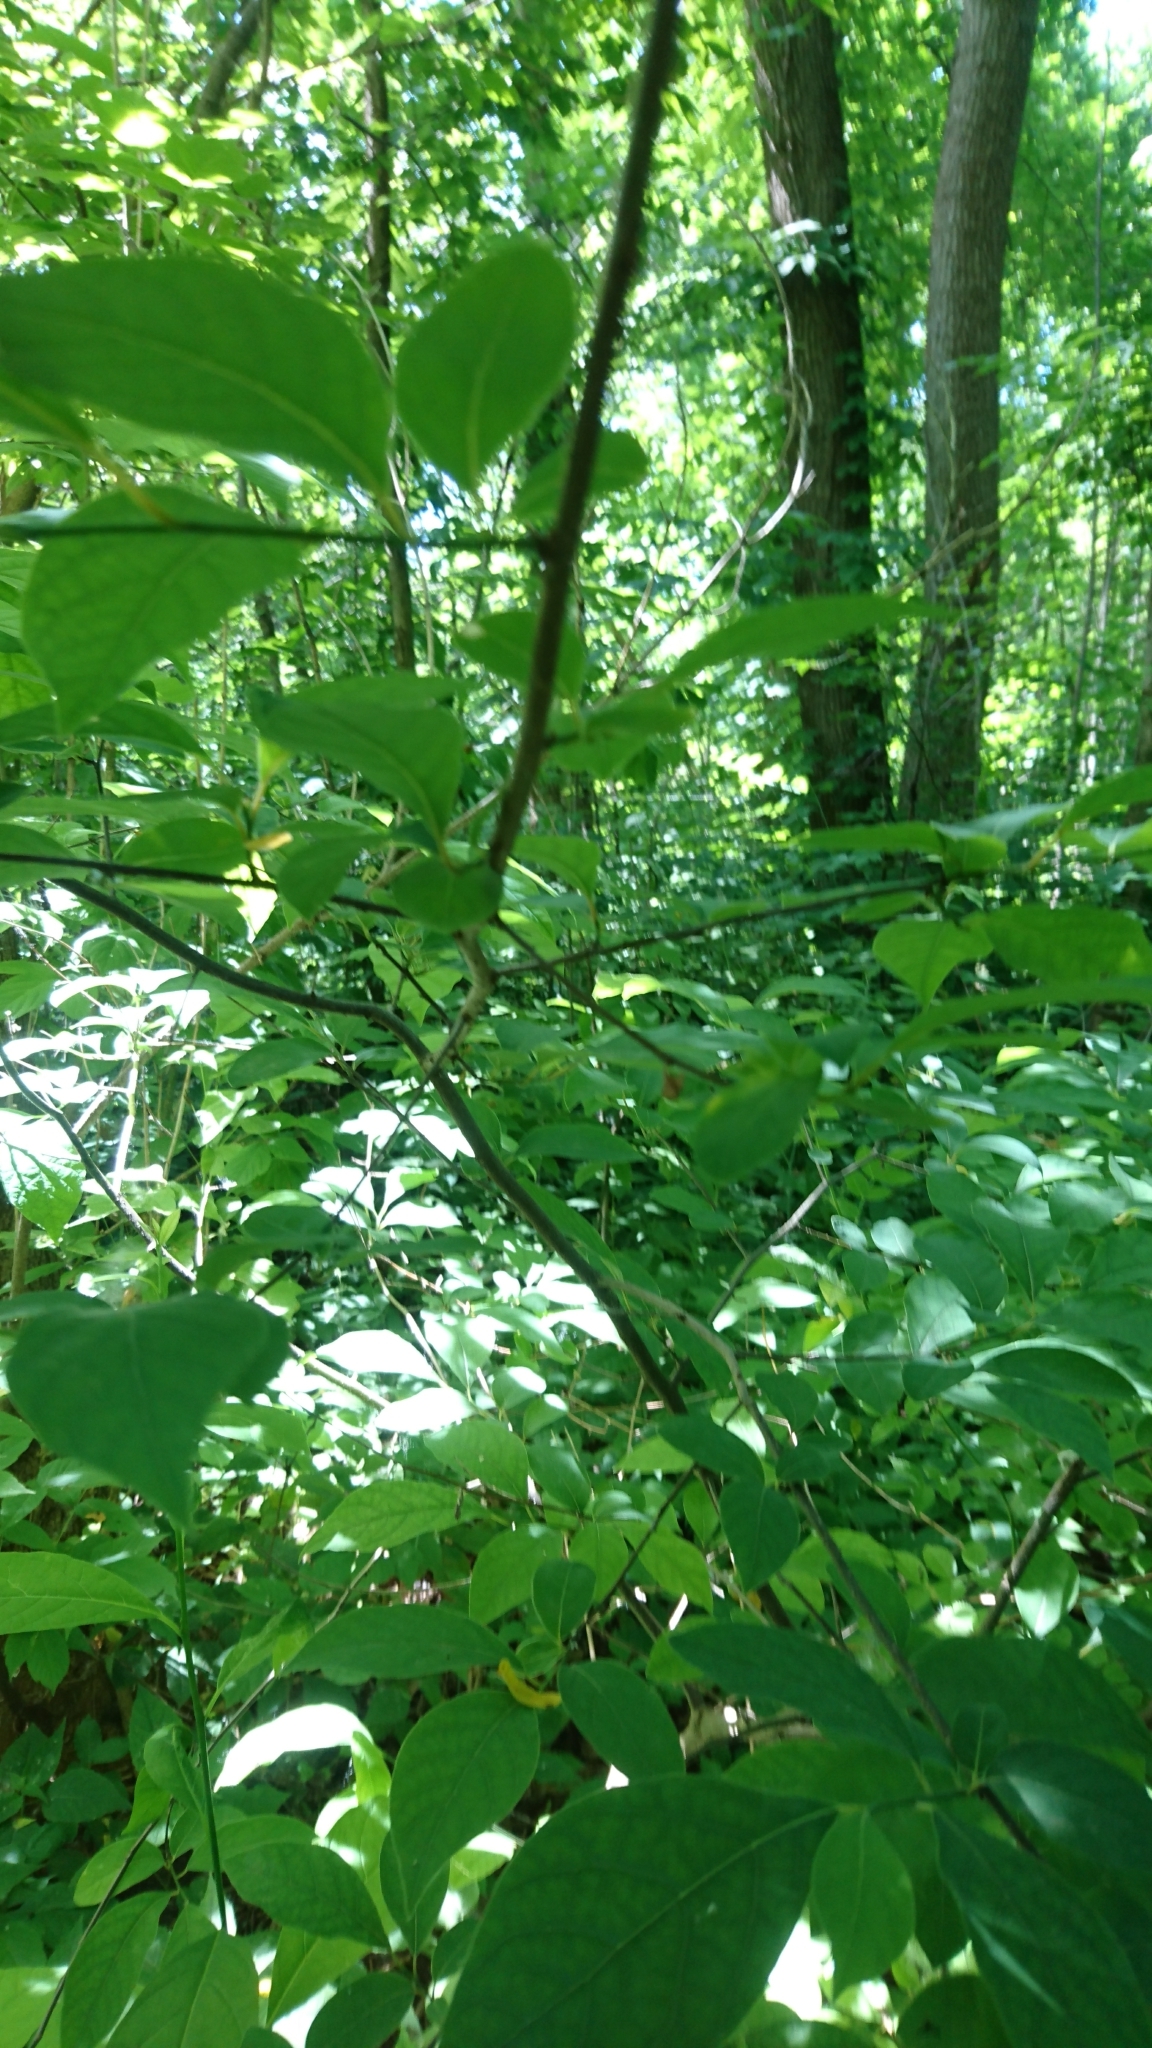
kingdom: Plantae
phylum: Tracheophyta
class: Magnoliopsida
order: Laurales
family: Lauraceae
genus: Lindera
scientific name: Lindera benzoin
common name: Spicebush
